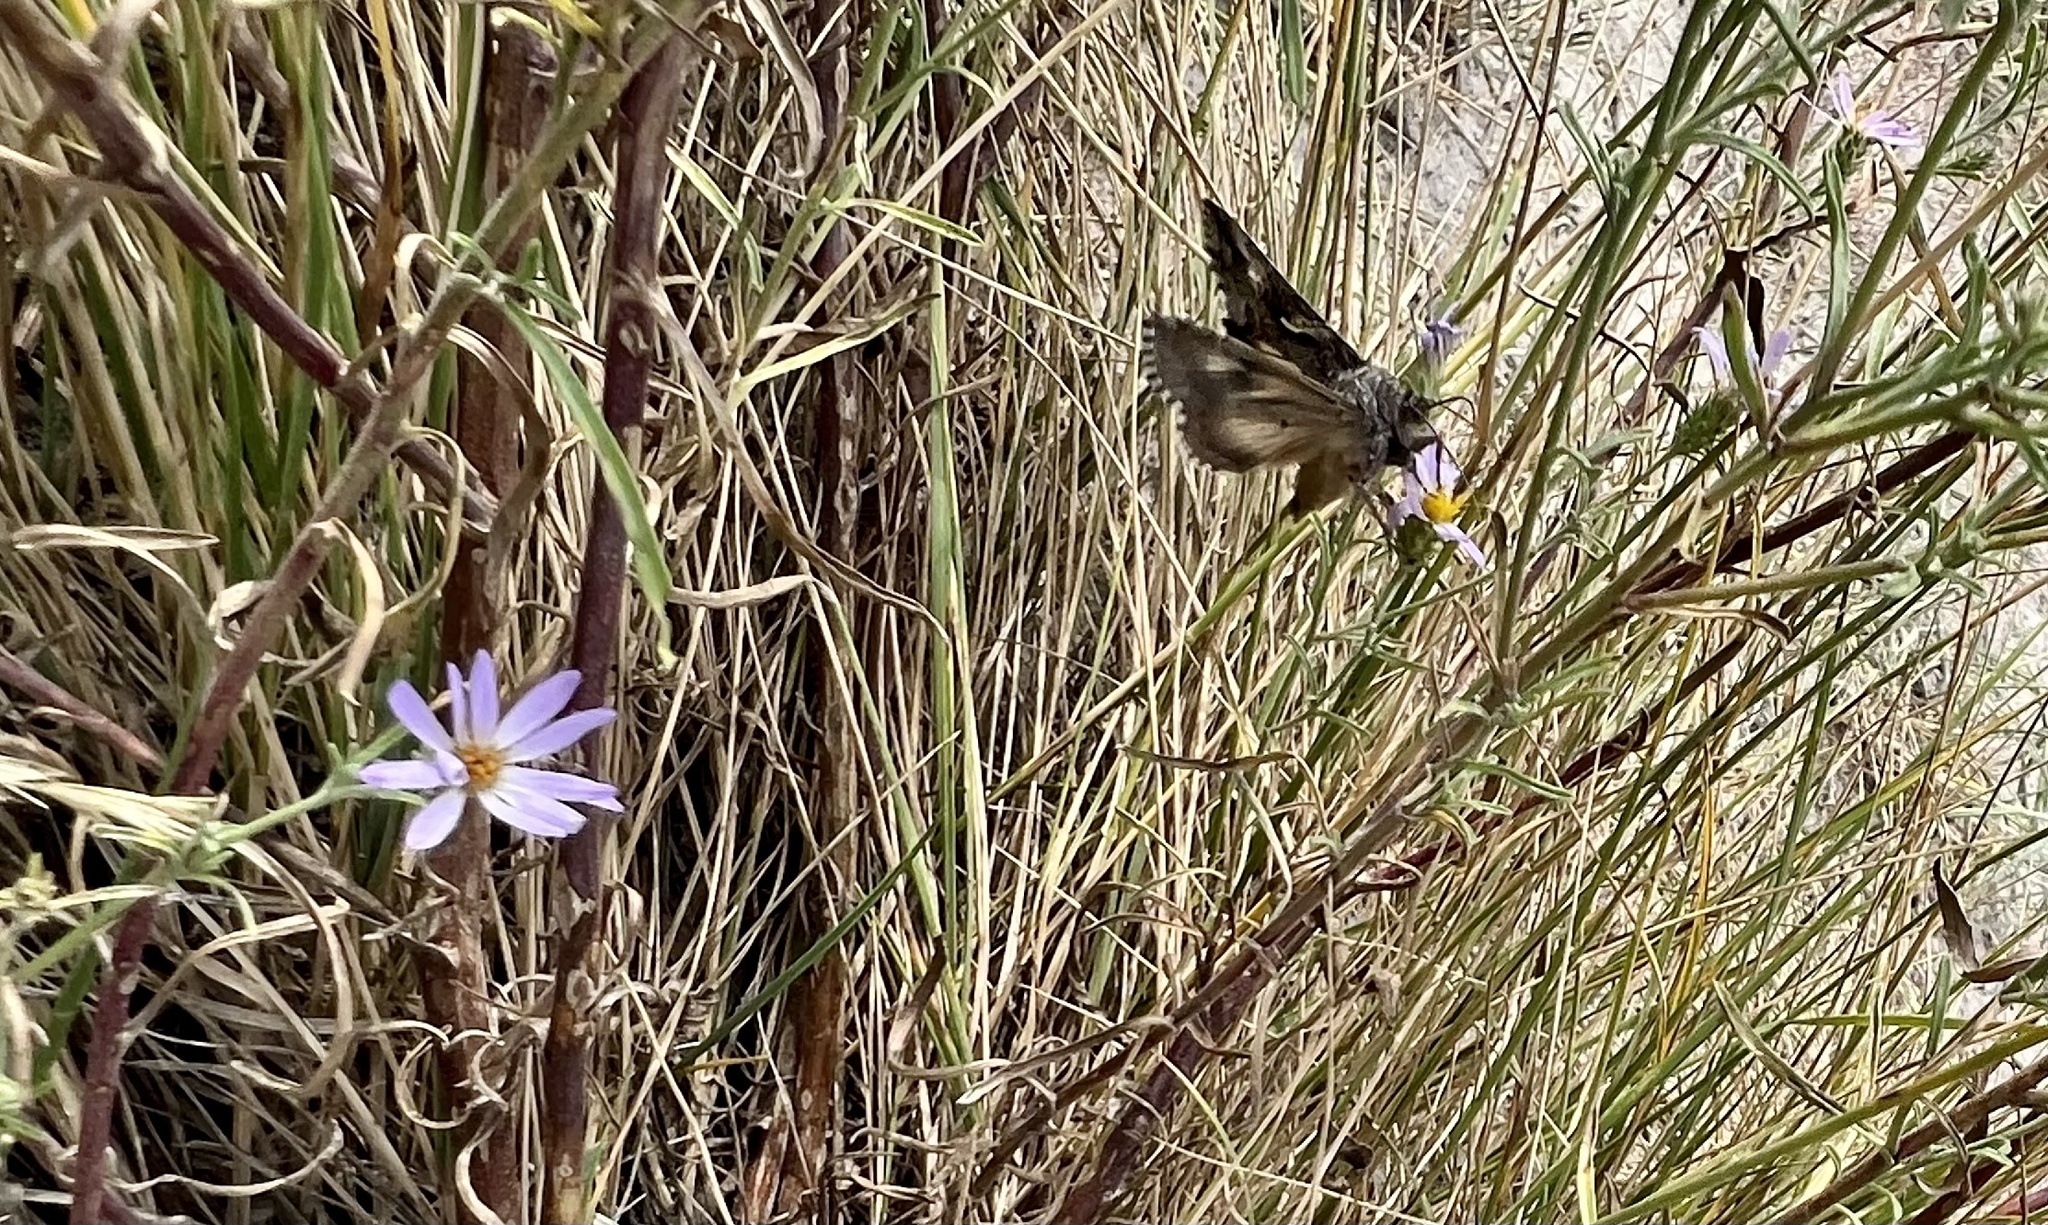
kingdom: Animalia
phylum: Arthropoda
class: Insecta
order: Lepidoptera
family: Noctuidae
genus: Autographa
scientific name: Autographa californica
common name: Alfalfa looper
